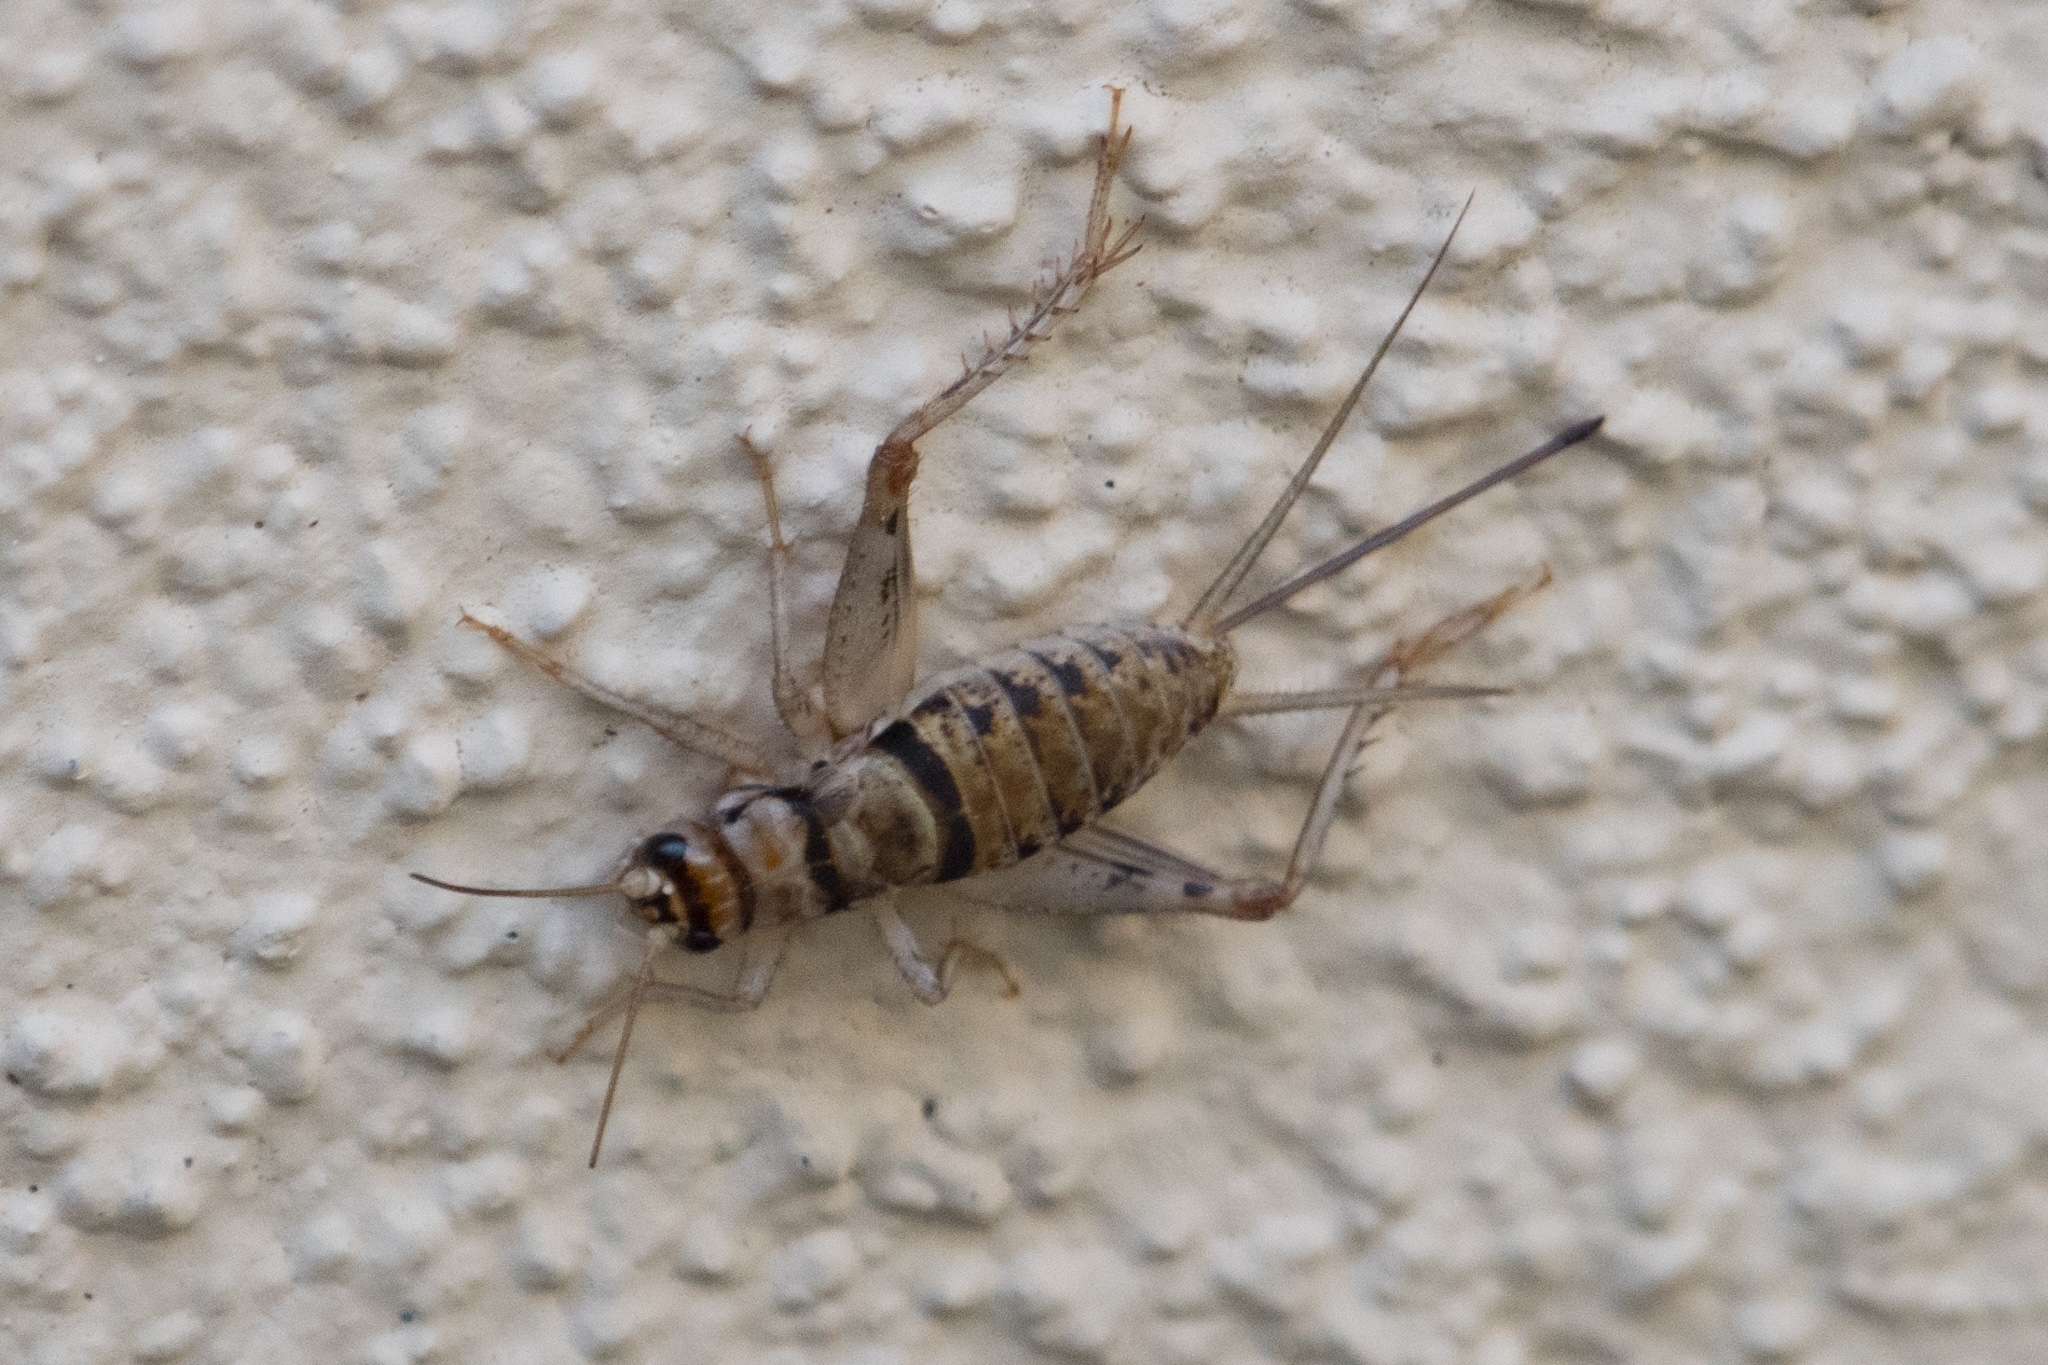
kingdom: Animalia
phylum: Arthropoda
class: Insecta
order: Orthoptera
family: Gryllidae
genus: Gryllodes
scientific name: Gryllodes sigillatus
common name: Tropical house cricket
